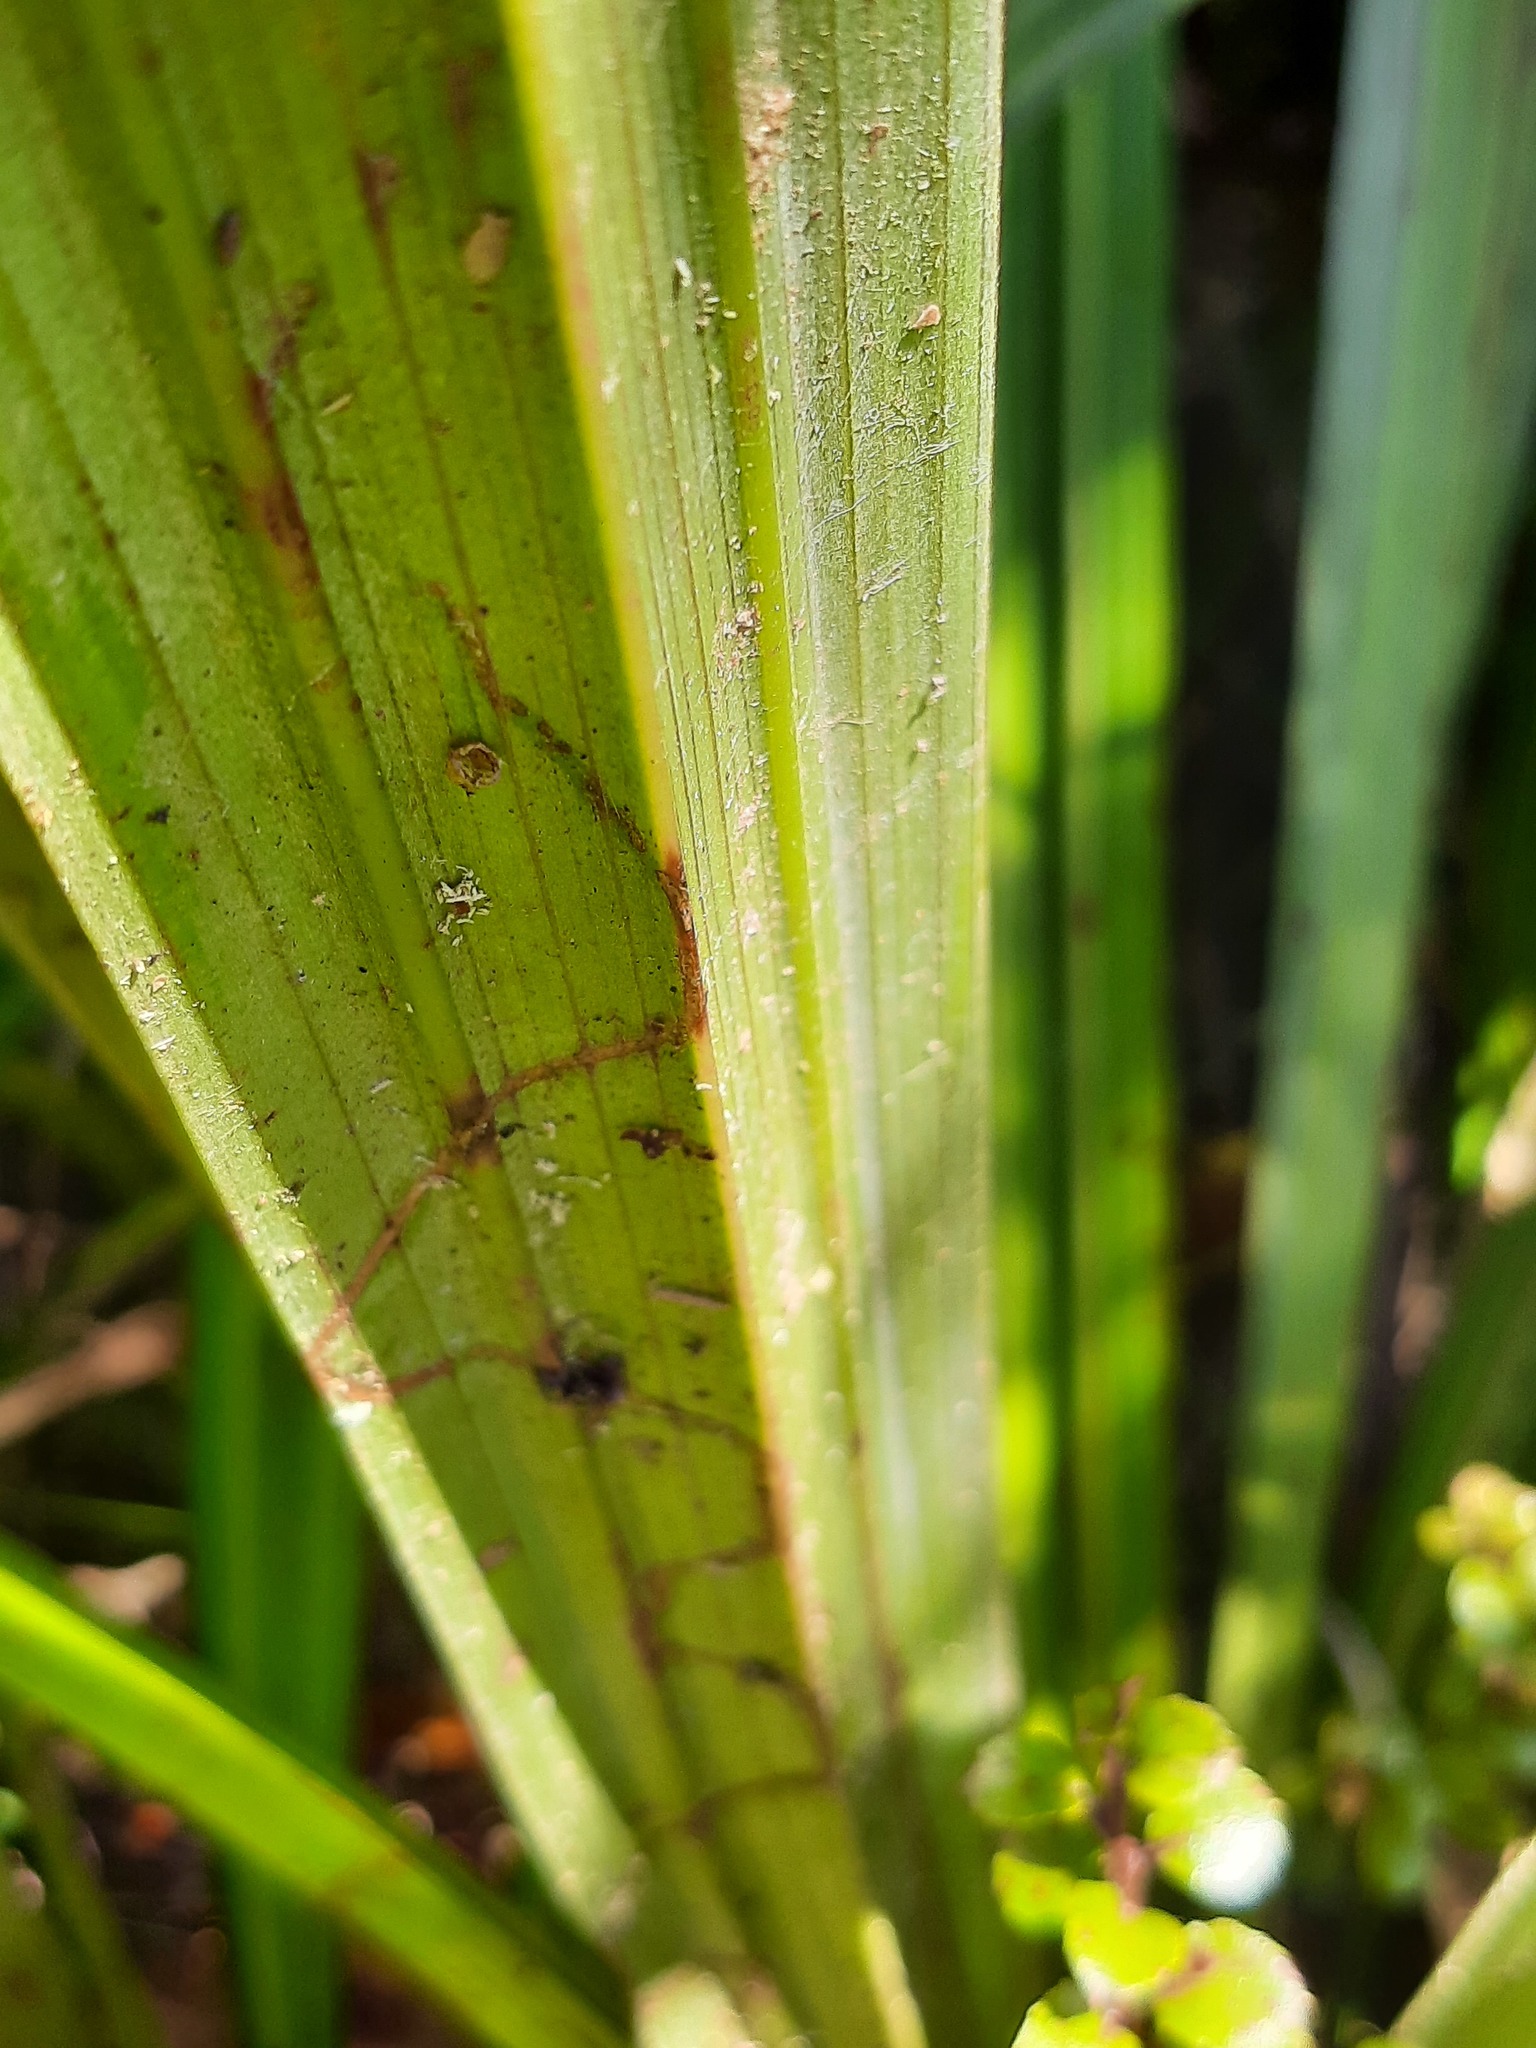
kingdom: Animalia
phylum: Arthropoda
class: Insecta
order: Lepidoptera
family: Plutellidae
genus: Charixena
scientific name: Charixena iridoxa
